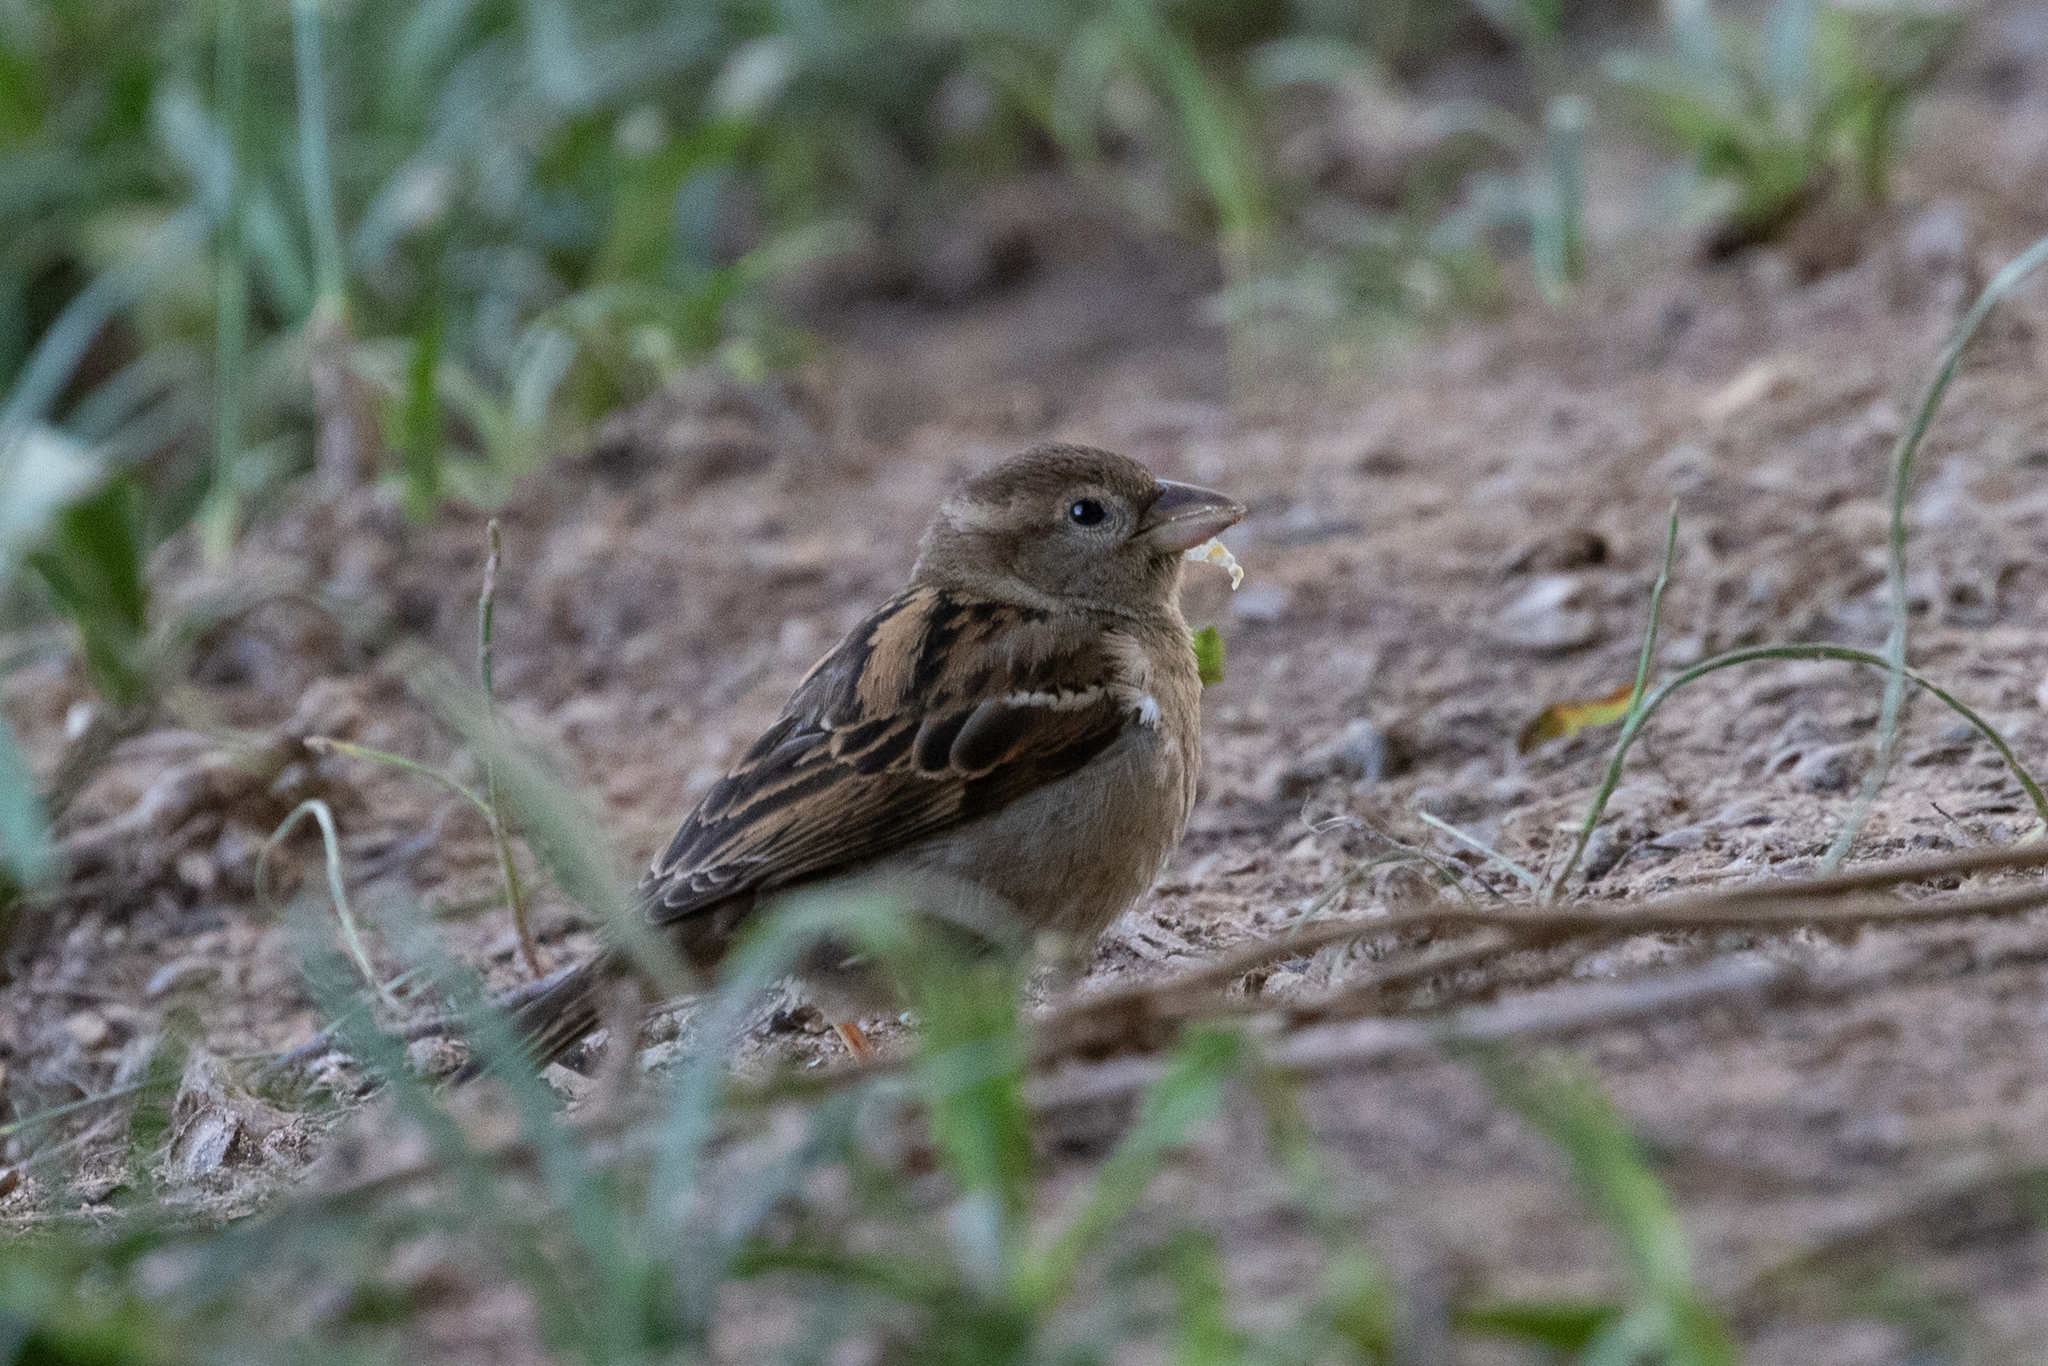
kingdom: Animalia
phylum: Chordata
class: Aves
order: Passeriformes
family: Passeridae
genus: Passer
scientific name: Passer domesticus
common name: House sparrow
